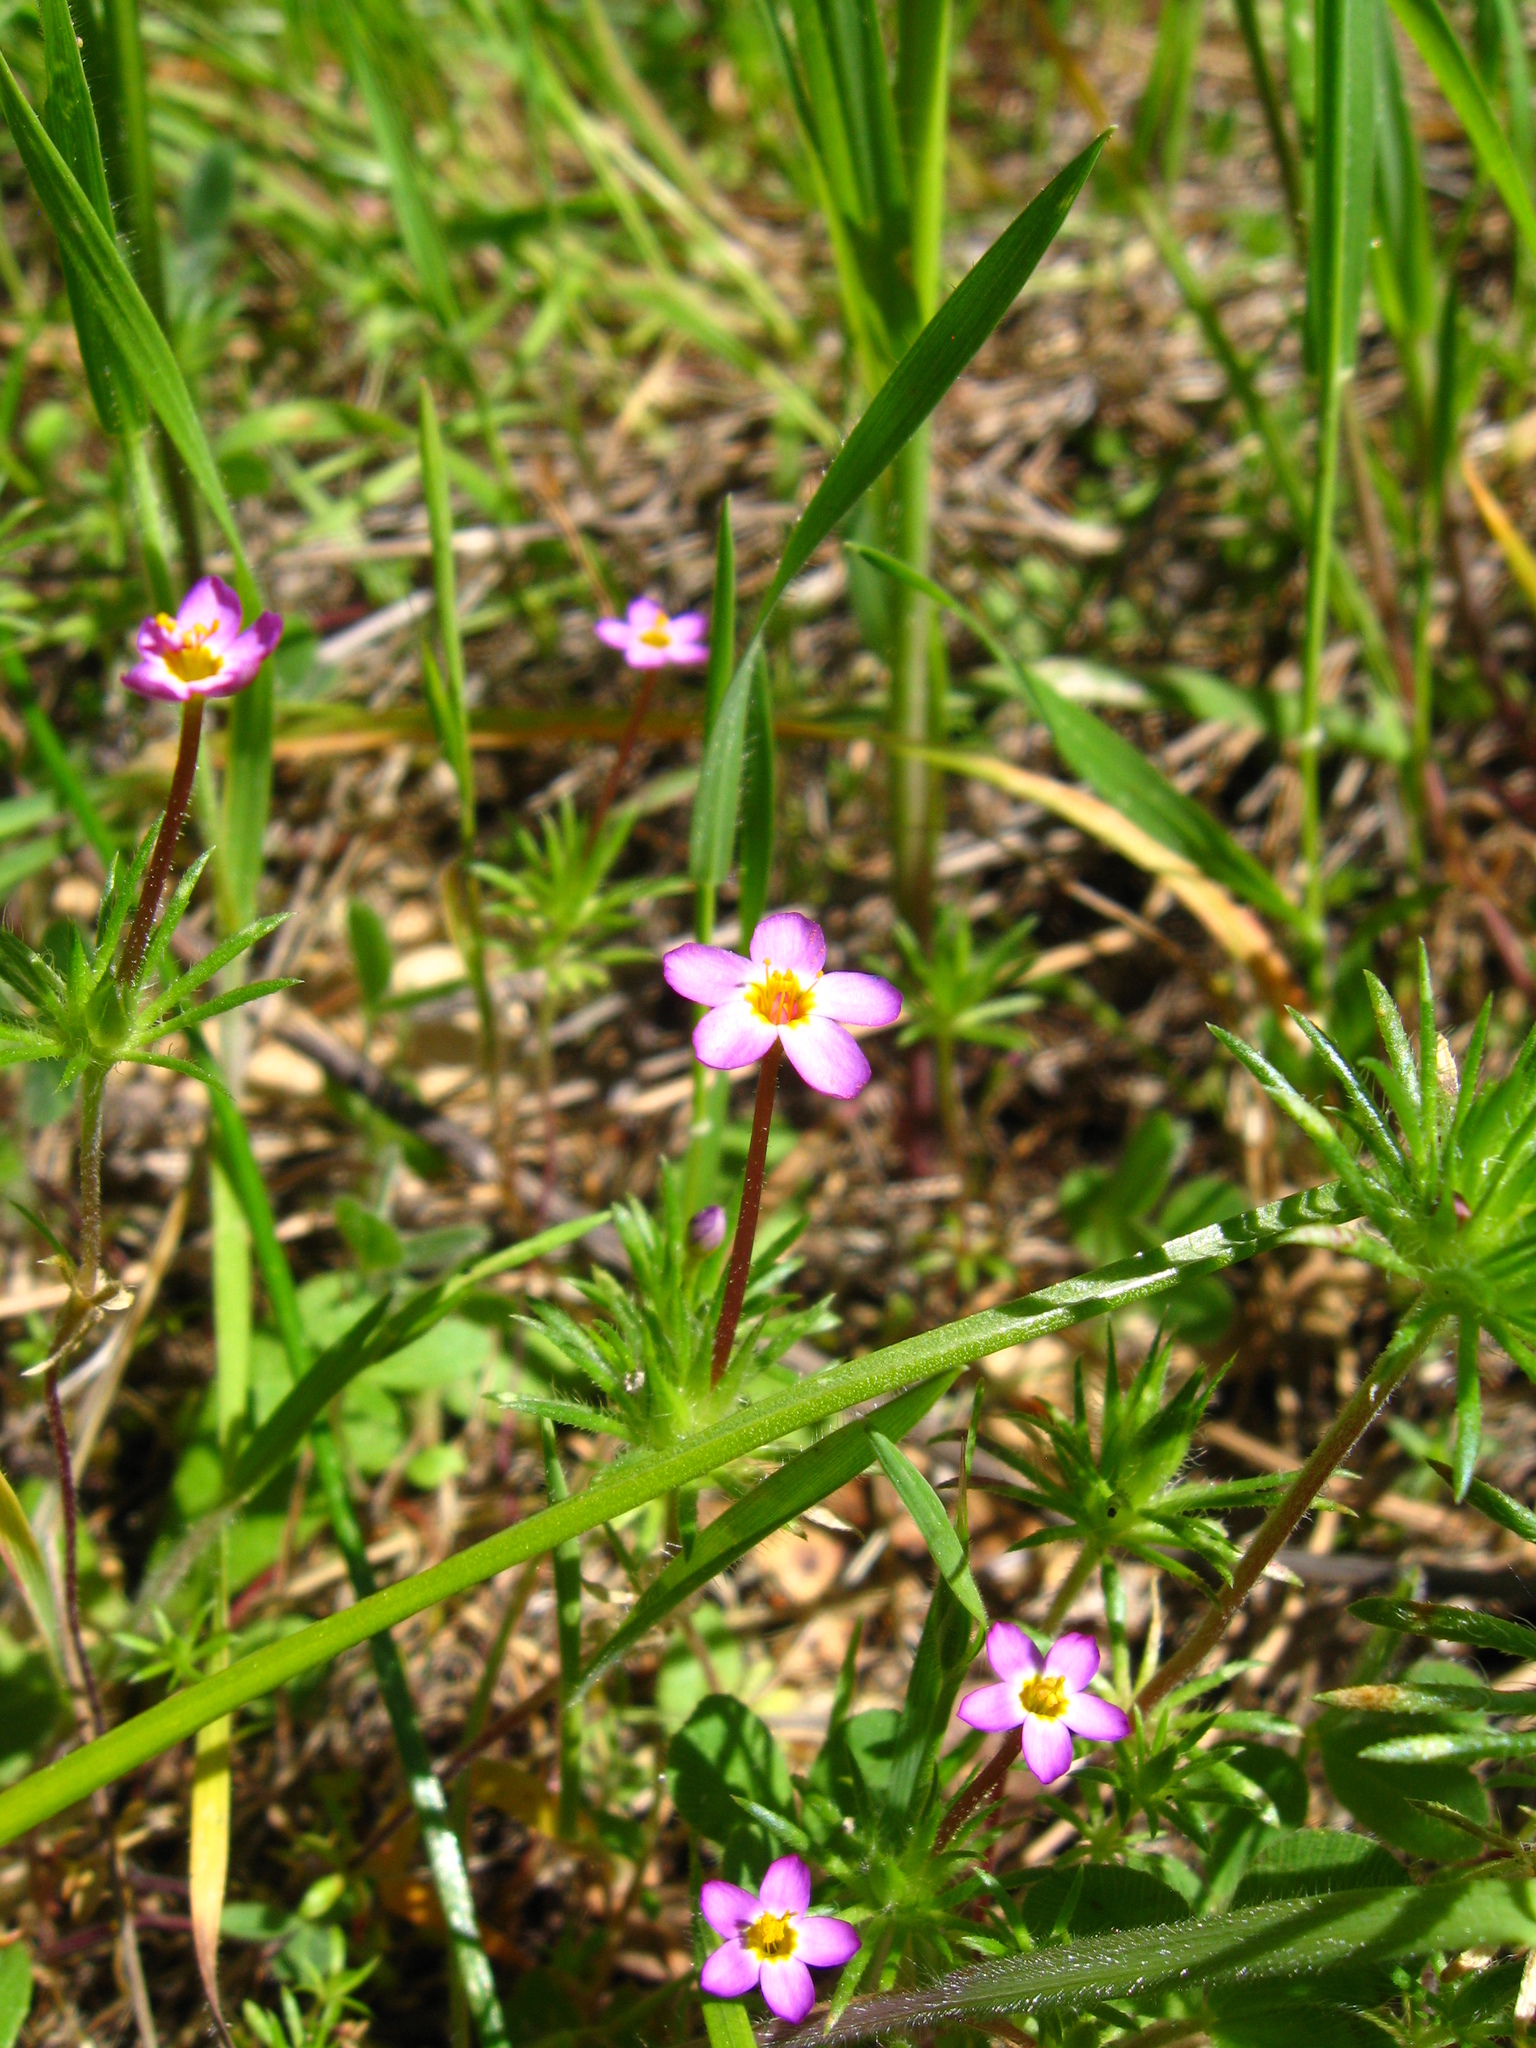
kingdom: Plantae
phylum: Tracheophyta
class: Magnoliopsida
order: Ericales
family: Polemoniaceae
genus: Leptosiphon
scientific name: Leptosiphon bicolor
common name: True babystars
